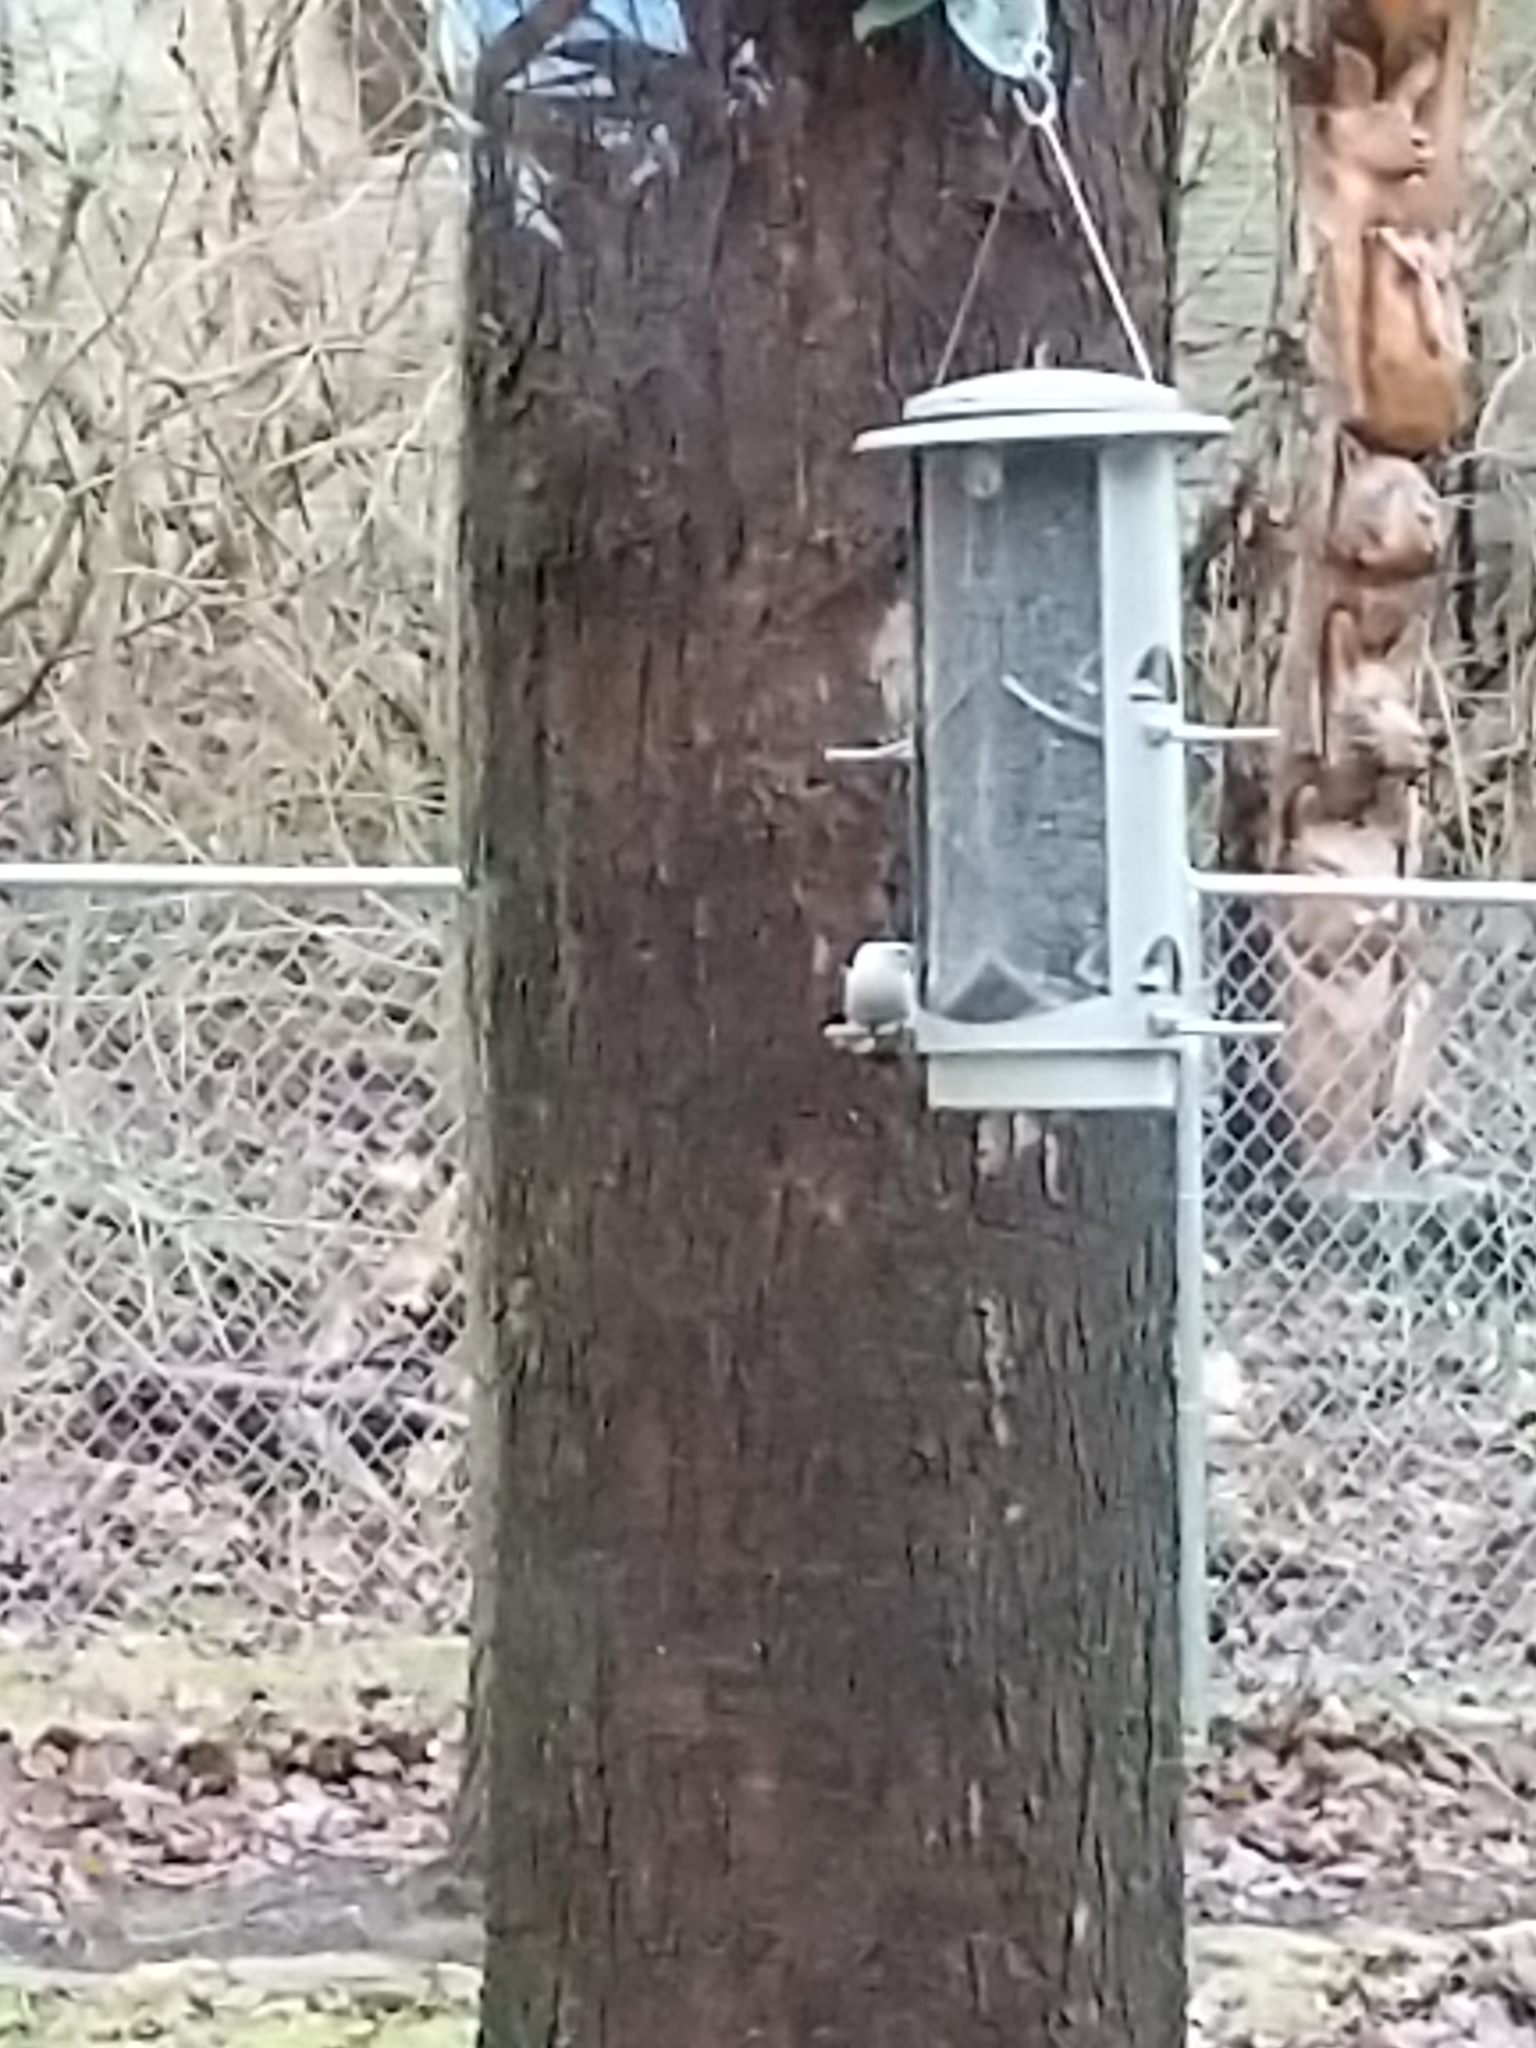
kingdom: Animalia
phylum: Chordata
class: Aves
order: Passeriformes
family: Sittidae
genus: Sitta
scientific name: Sitta carolinensis
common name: White-breasted nuthatch
